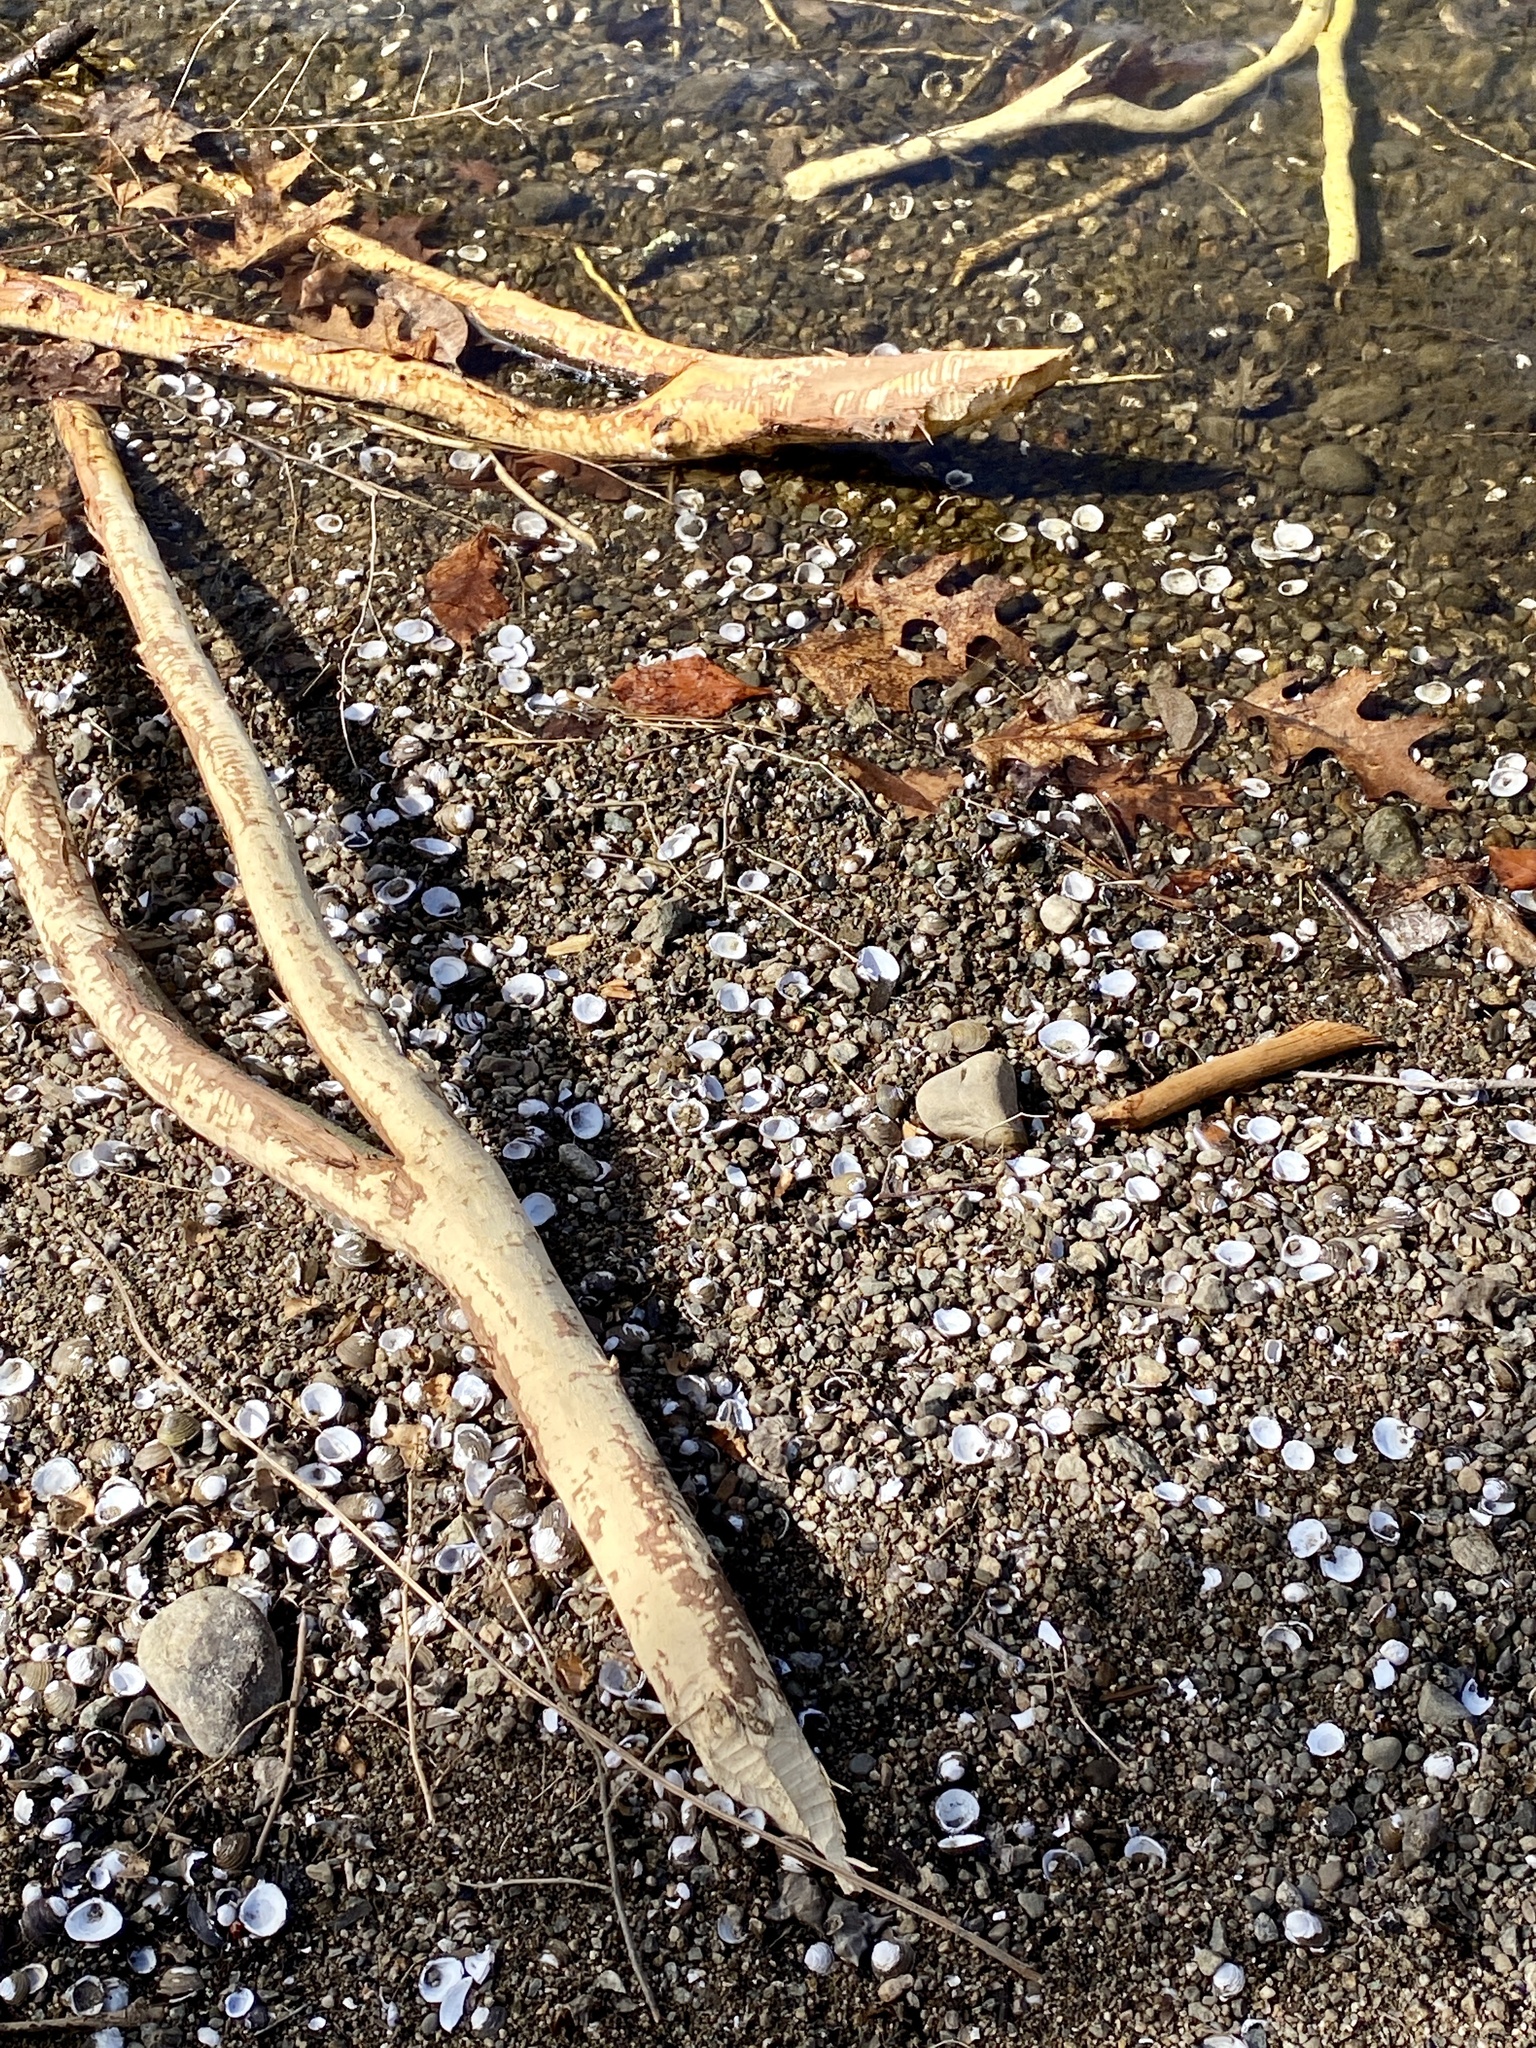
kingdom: Animalia
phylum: Chordata
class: Mammalia
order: Rodentia
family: Castoridae
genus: Castor
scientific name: Castor canadensis
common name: American beaver
